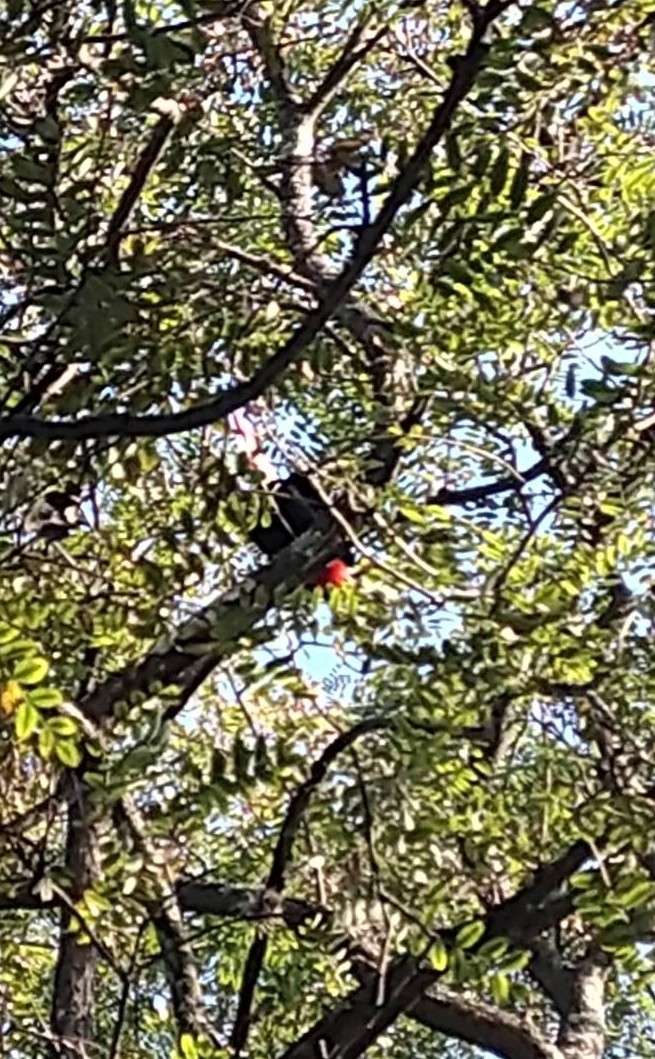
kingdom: Animalia
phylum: Chordata
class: Aves
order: Piciformes
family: Ramphastidae
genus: Ramphastos
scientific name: Ramphastos toco
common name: Toco toucan
